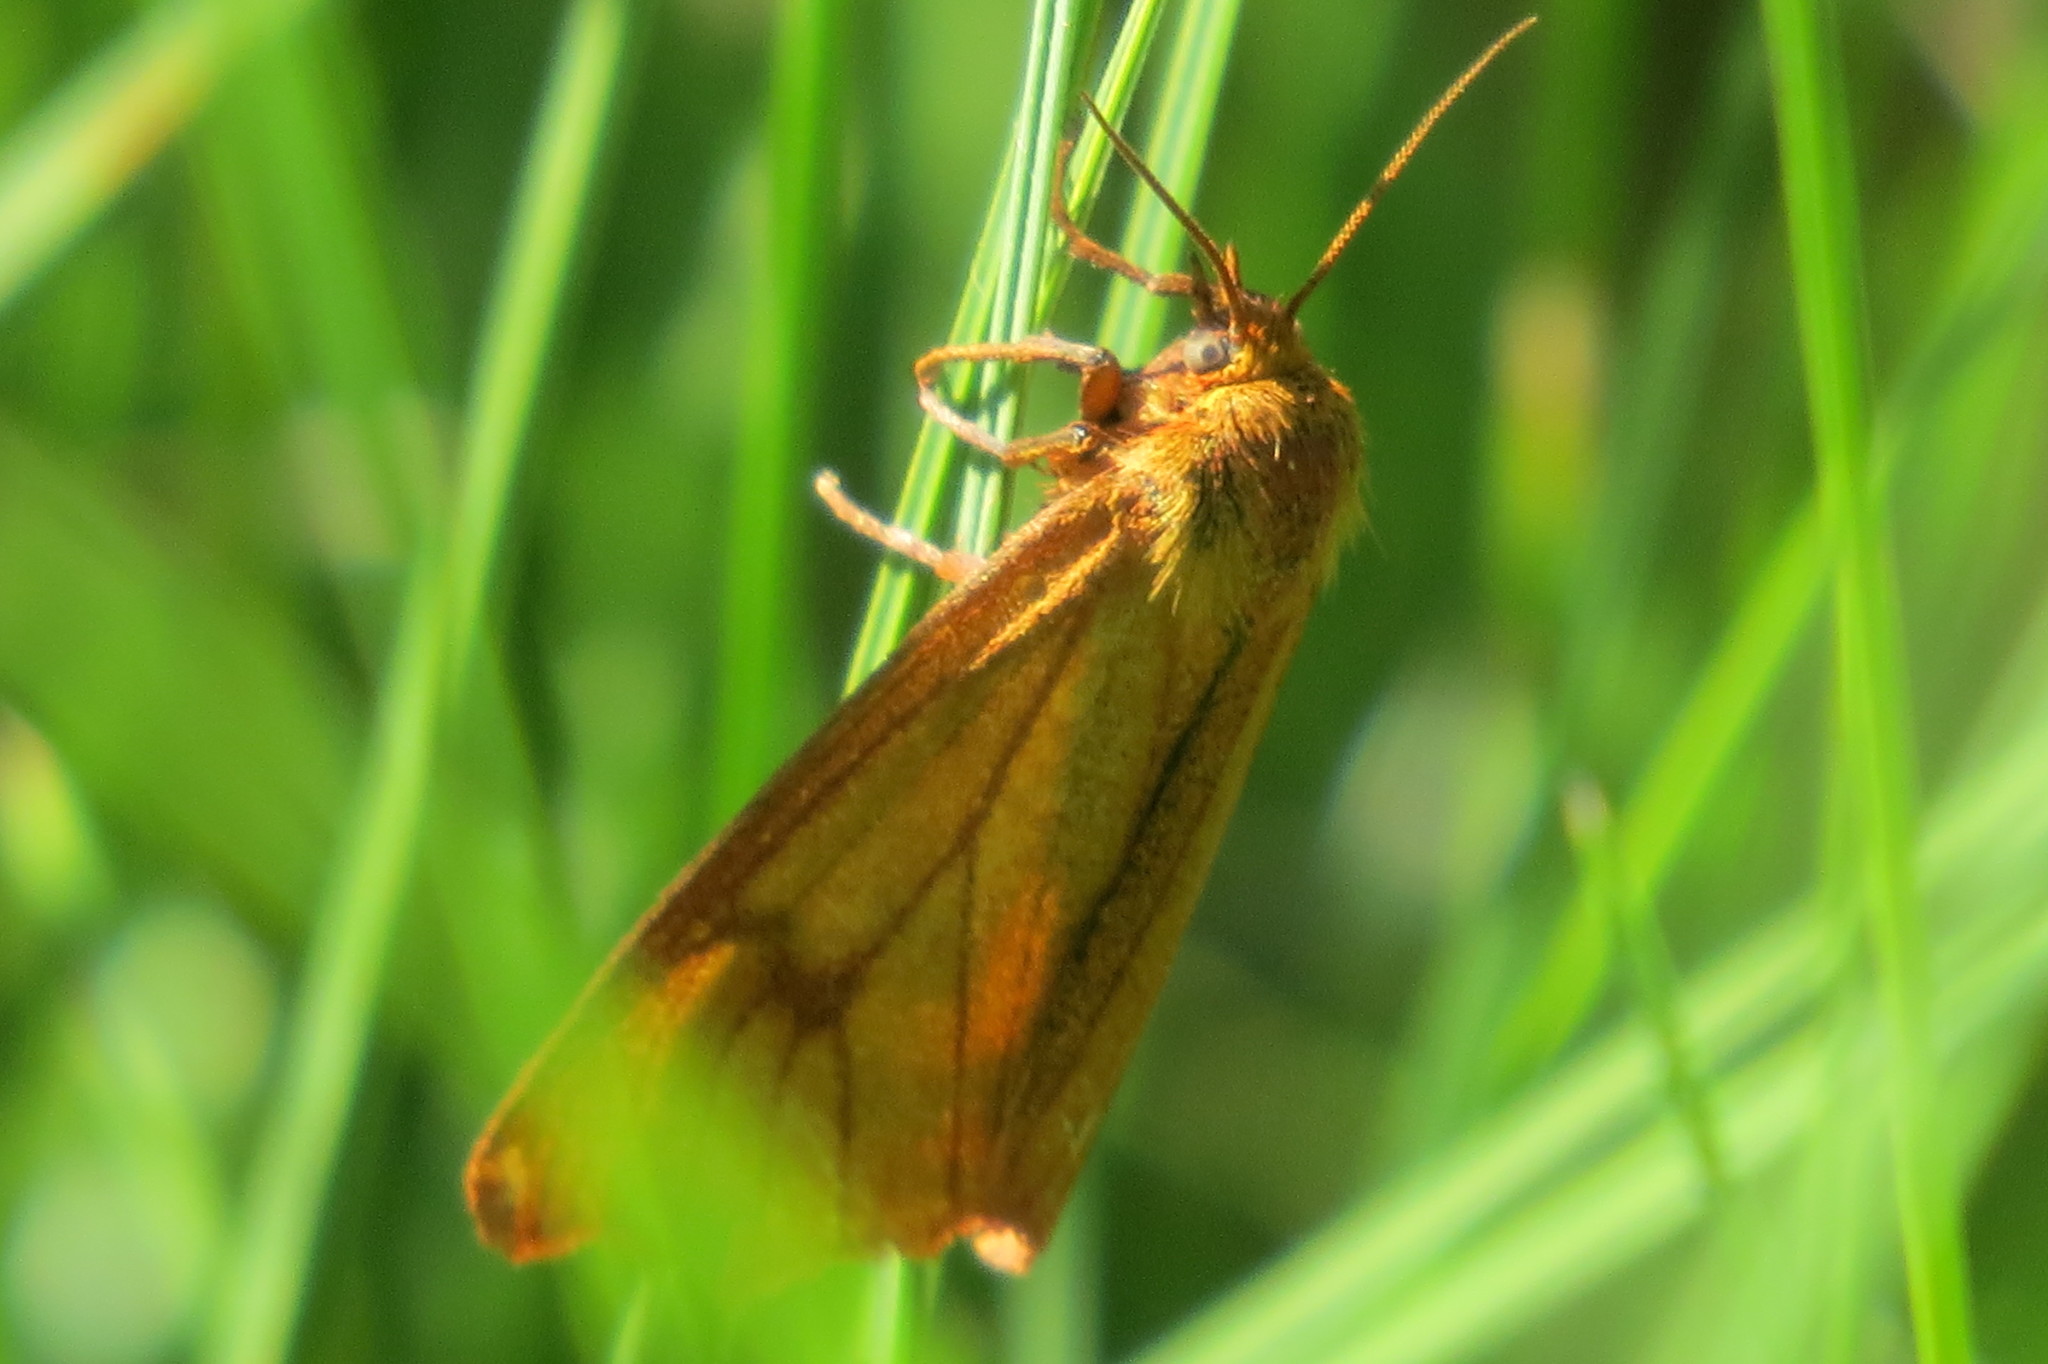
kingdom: Animalia
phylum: Arthropoda
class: Insecta
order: Lepidoptera
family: Erebidae
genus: Diacrisia
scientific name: Diacrisia sannio
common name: Clouded buff
